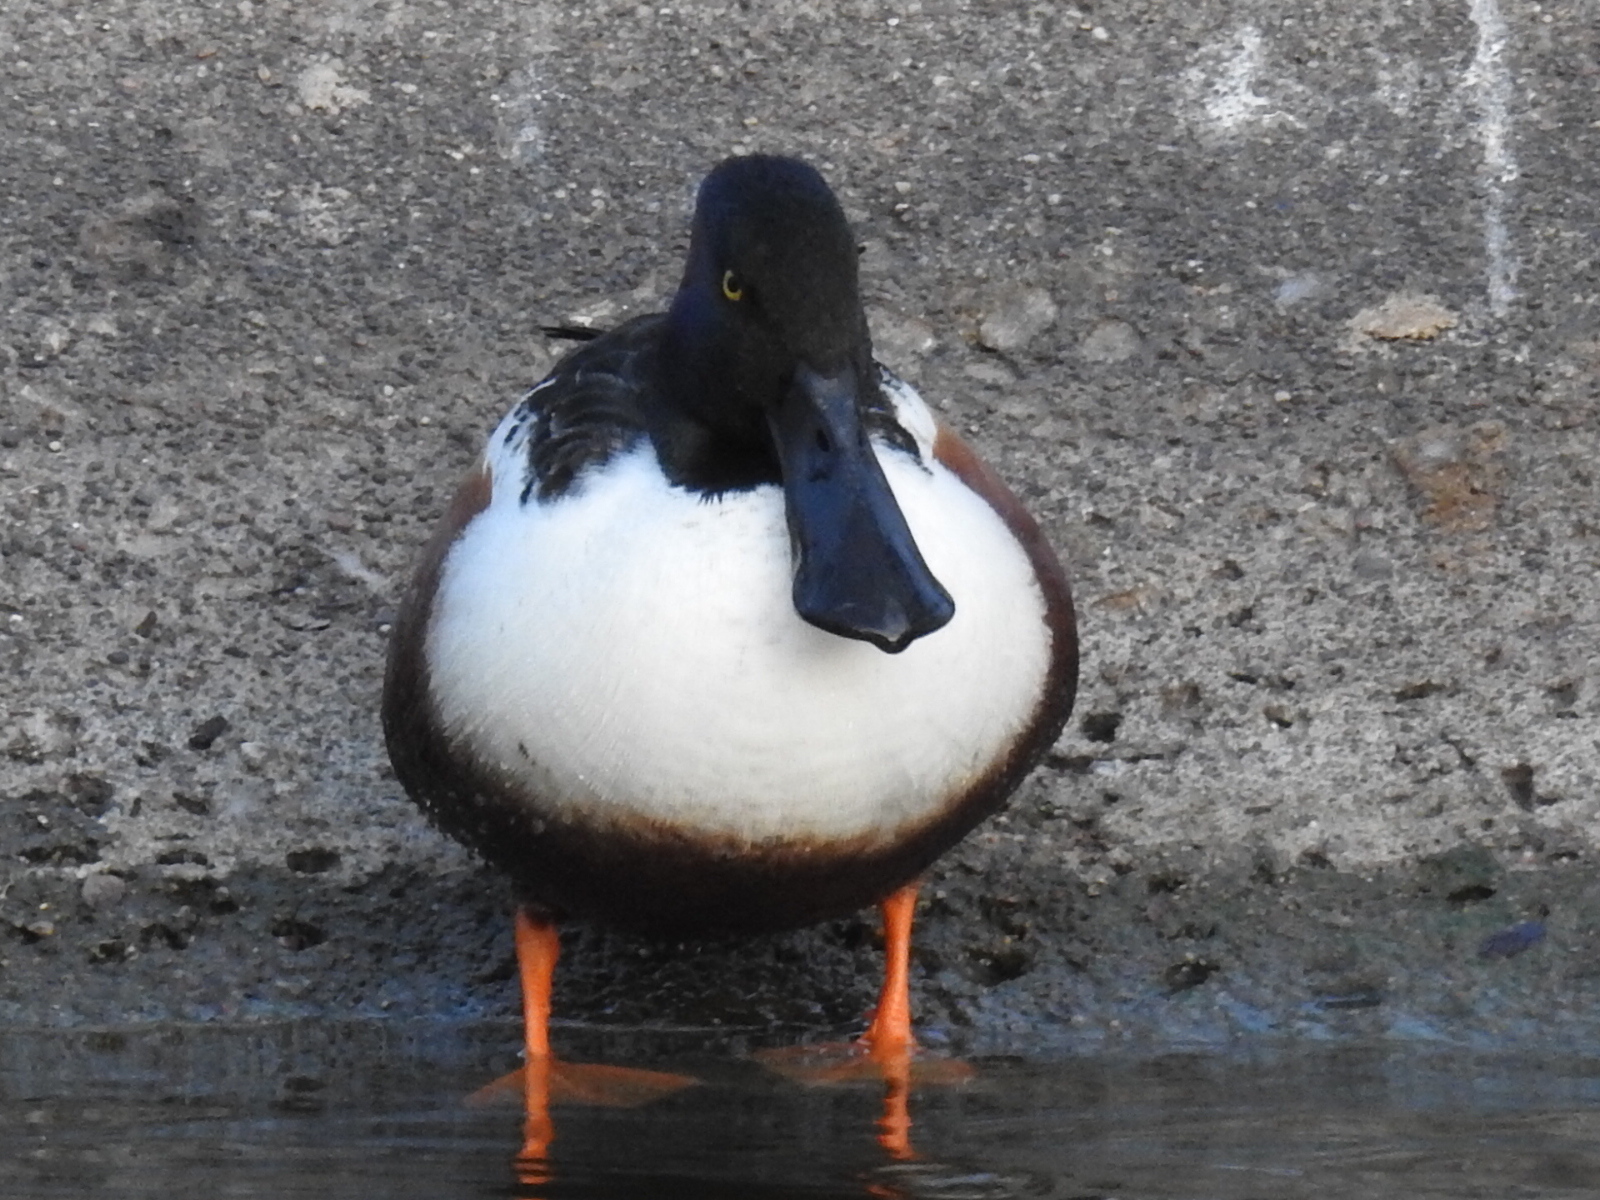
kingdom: Animalia
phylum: Chordata
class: Aves
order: Anseriformes
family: Anatidae
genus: Spatula
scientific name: Spatula clypeata
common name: Northern shoveler
